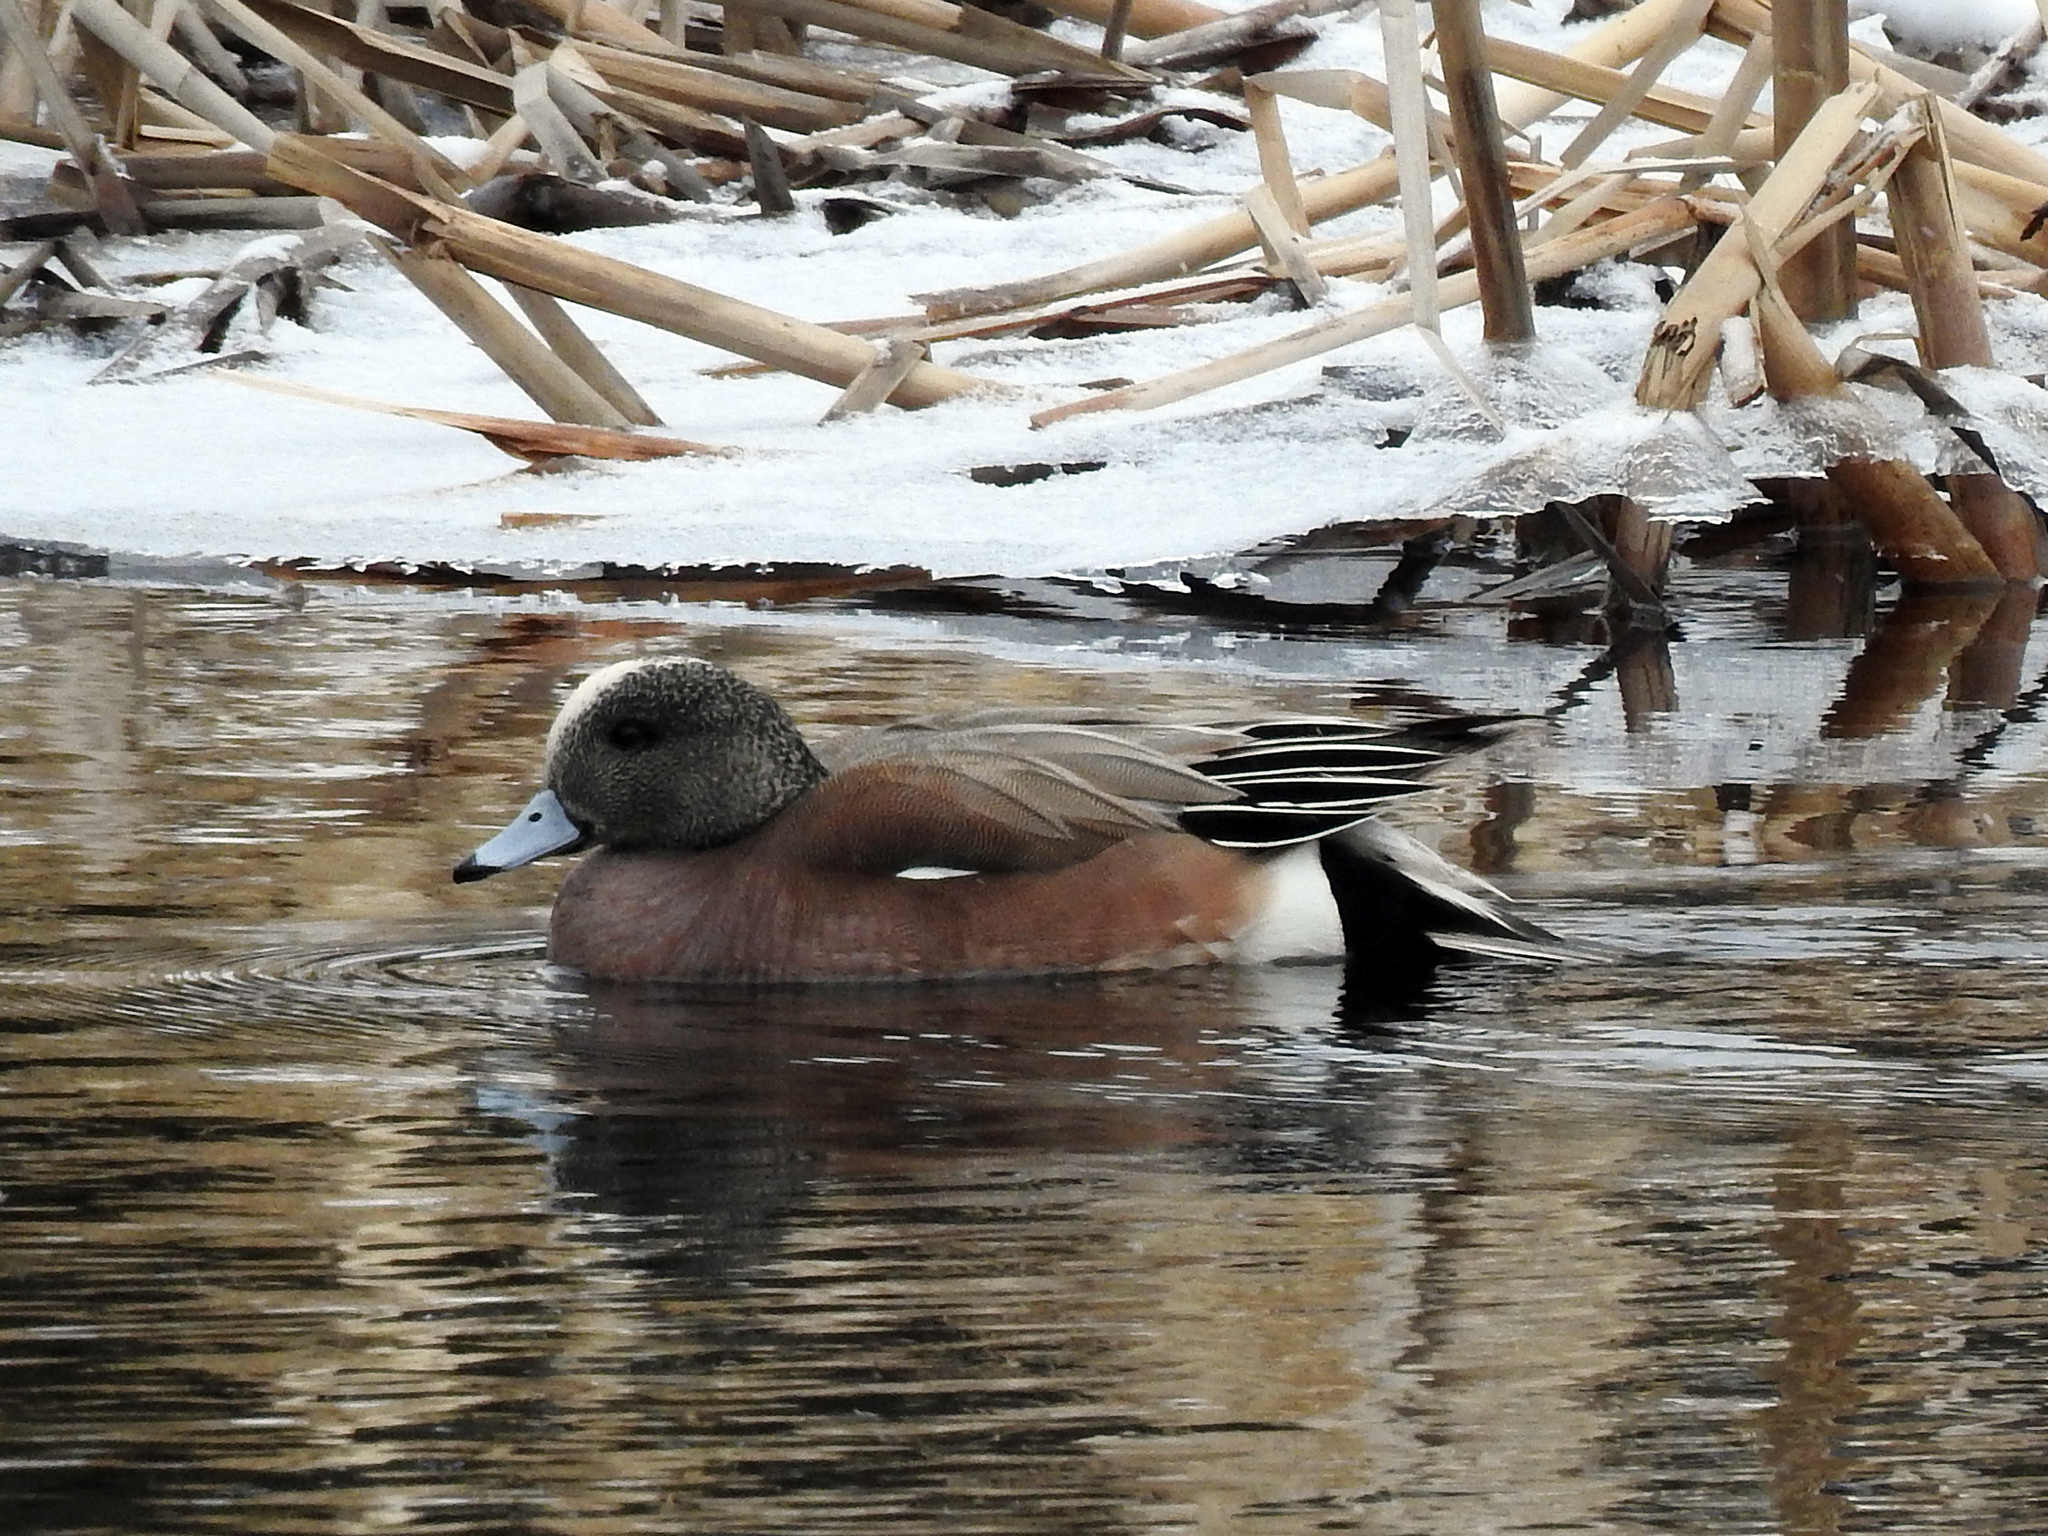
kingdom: Animalia
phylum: Chordata
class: Aves
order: Anseriformes
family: Anatidae
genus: Mareca
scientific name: Mareca americana
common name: American wigeon
